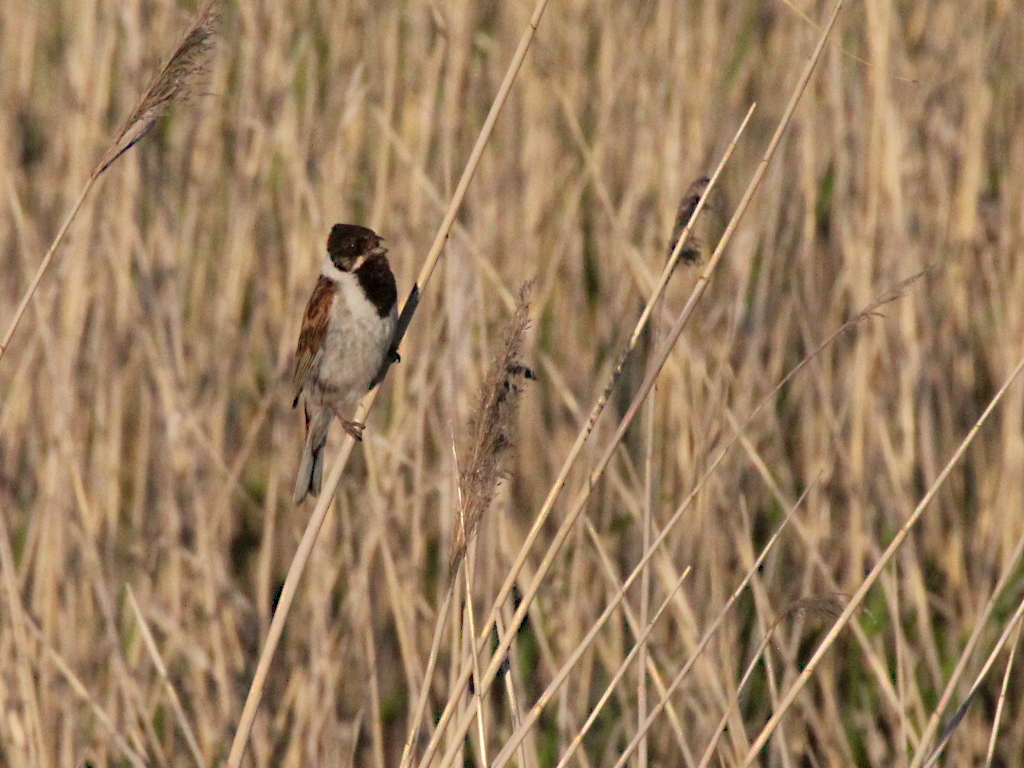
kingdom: Animalia
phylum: Chordata
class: Aves
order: Passeriformes
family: Emberizidae
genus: Emberiza
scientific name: Emberiza schoeniclus
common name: Reed bunting
